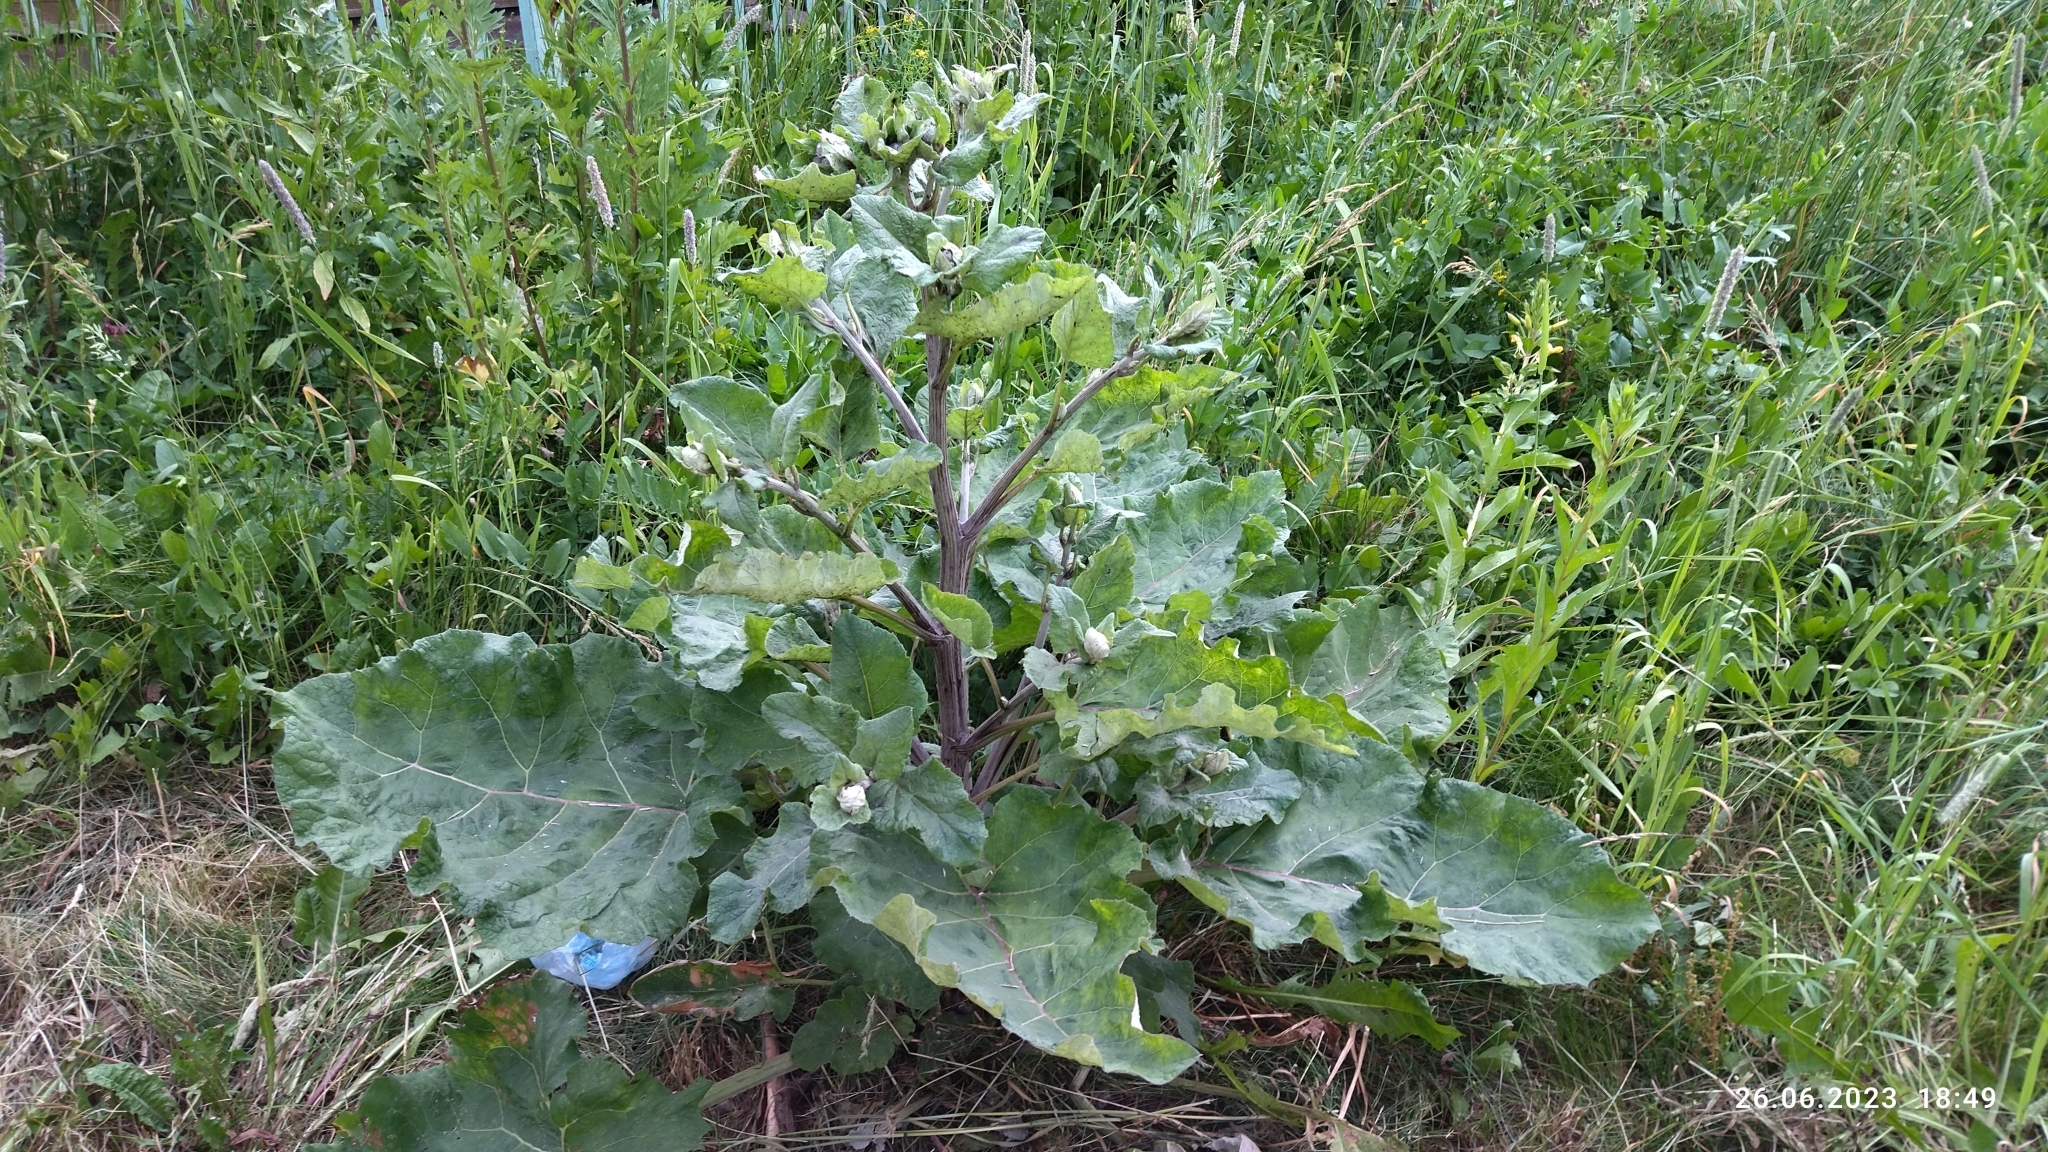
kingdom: Plantae
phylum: Tracheophyta
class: Magnoliopsida
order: Asterales
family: Asteraceae
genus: Arctium
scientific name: Arctium tomentosum
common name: Woolly burdock
